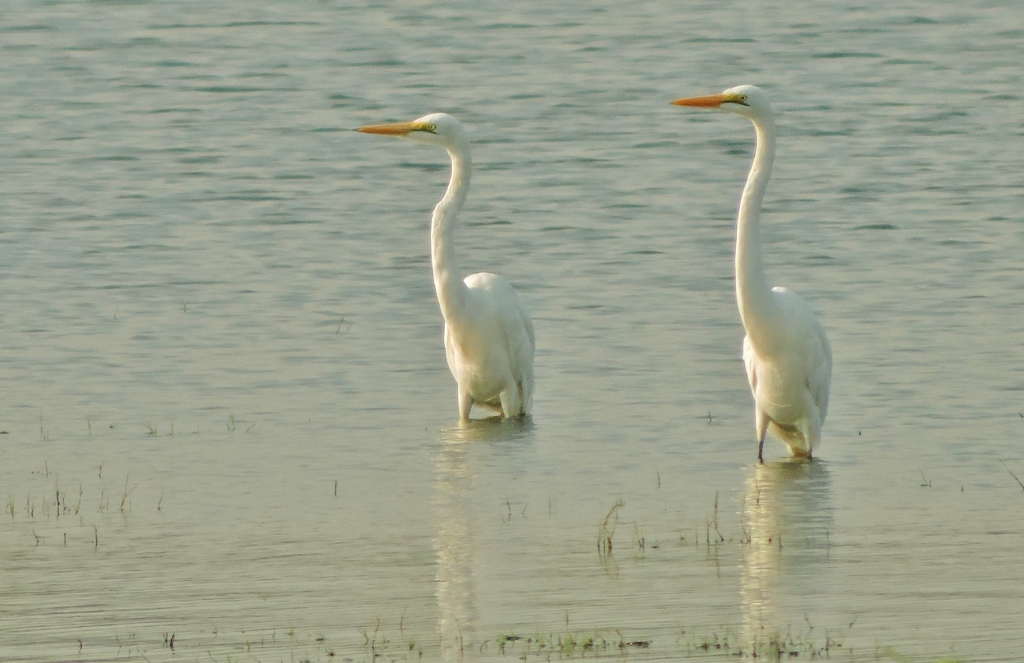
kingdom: Animalia
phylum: Chordata
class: Aves
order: Pelecaniformes
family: Ardeidae
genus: Ardea
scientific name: Ardea alba
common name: Great egret
